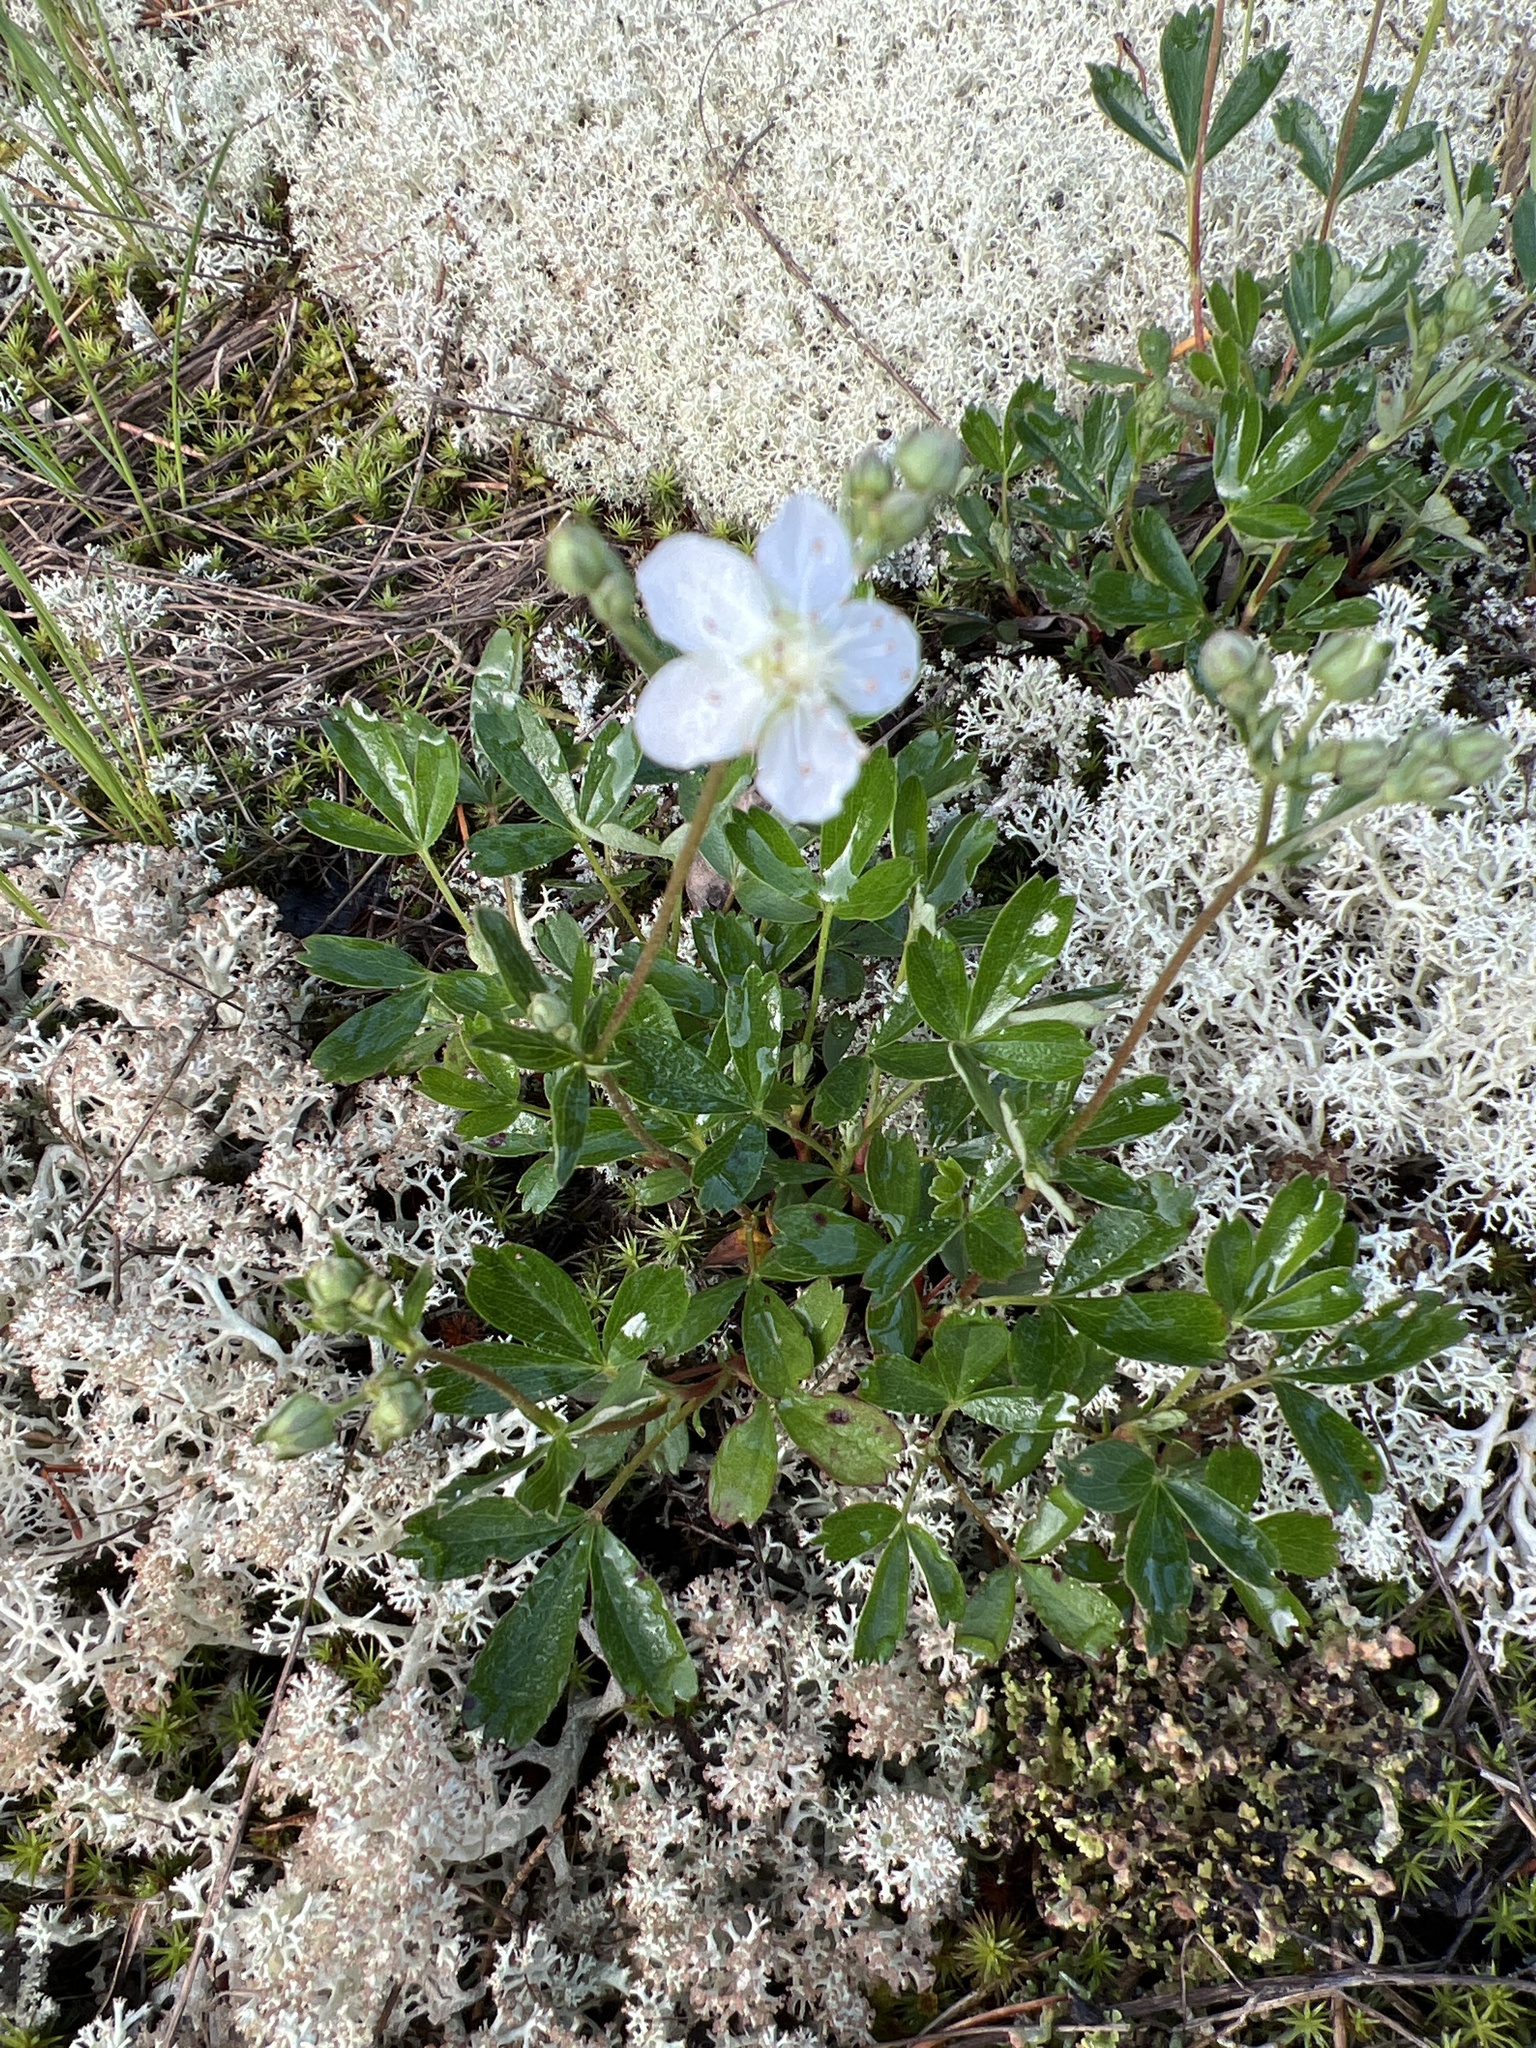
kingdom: Plantae
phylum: Tracheophyta
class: Magnoliopsida
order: Rosales
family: Rosaceae
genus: Sibbaldia
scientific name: Sibbaldia tridentata
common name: Three-toothed cinquefoil
